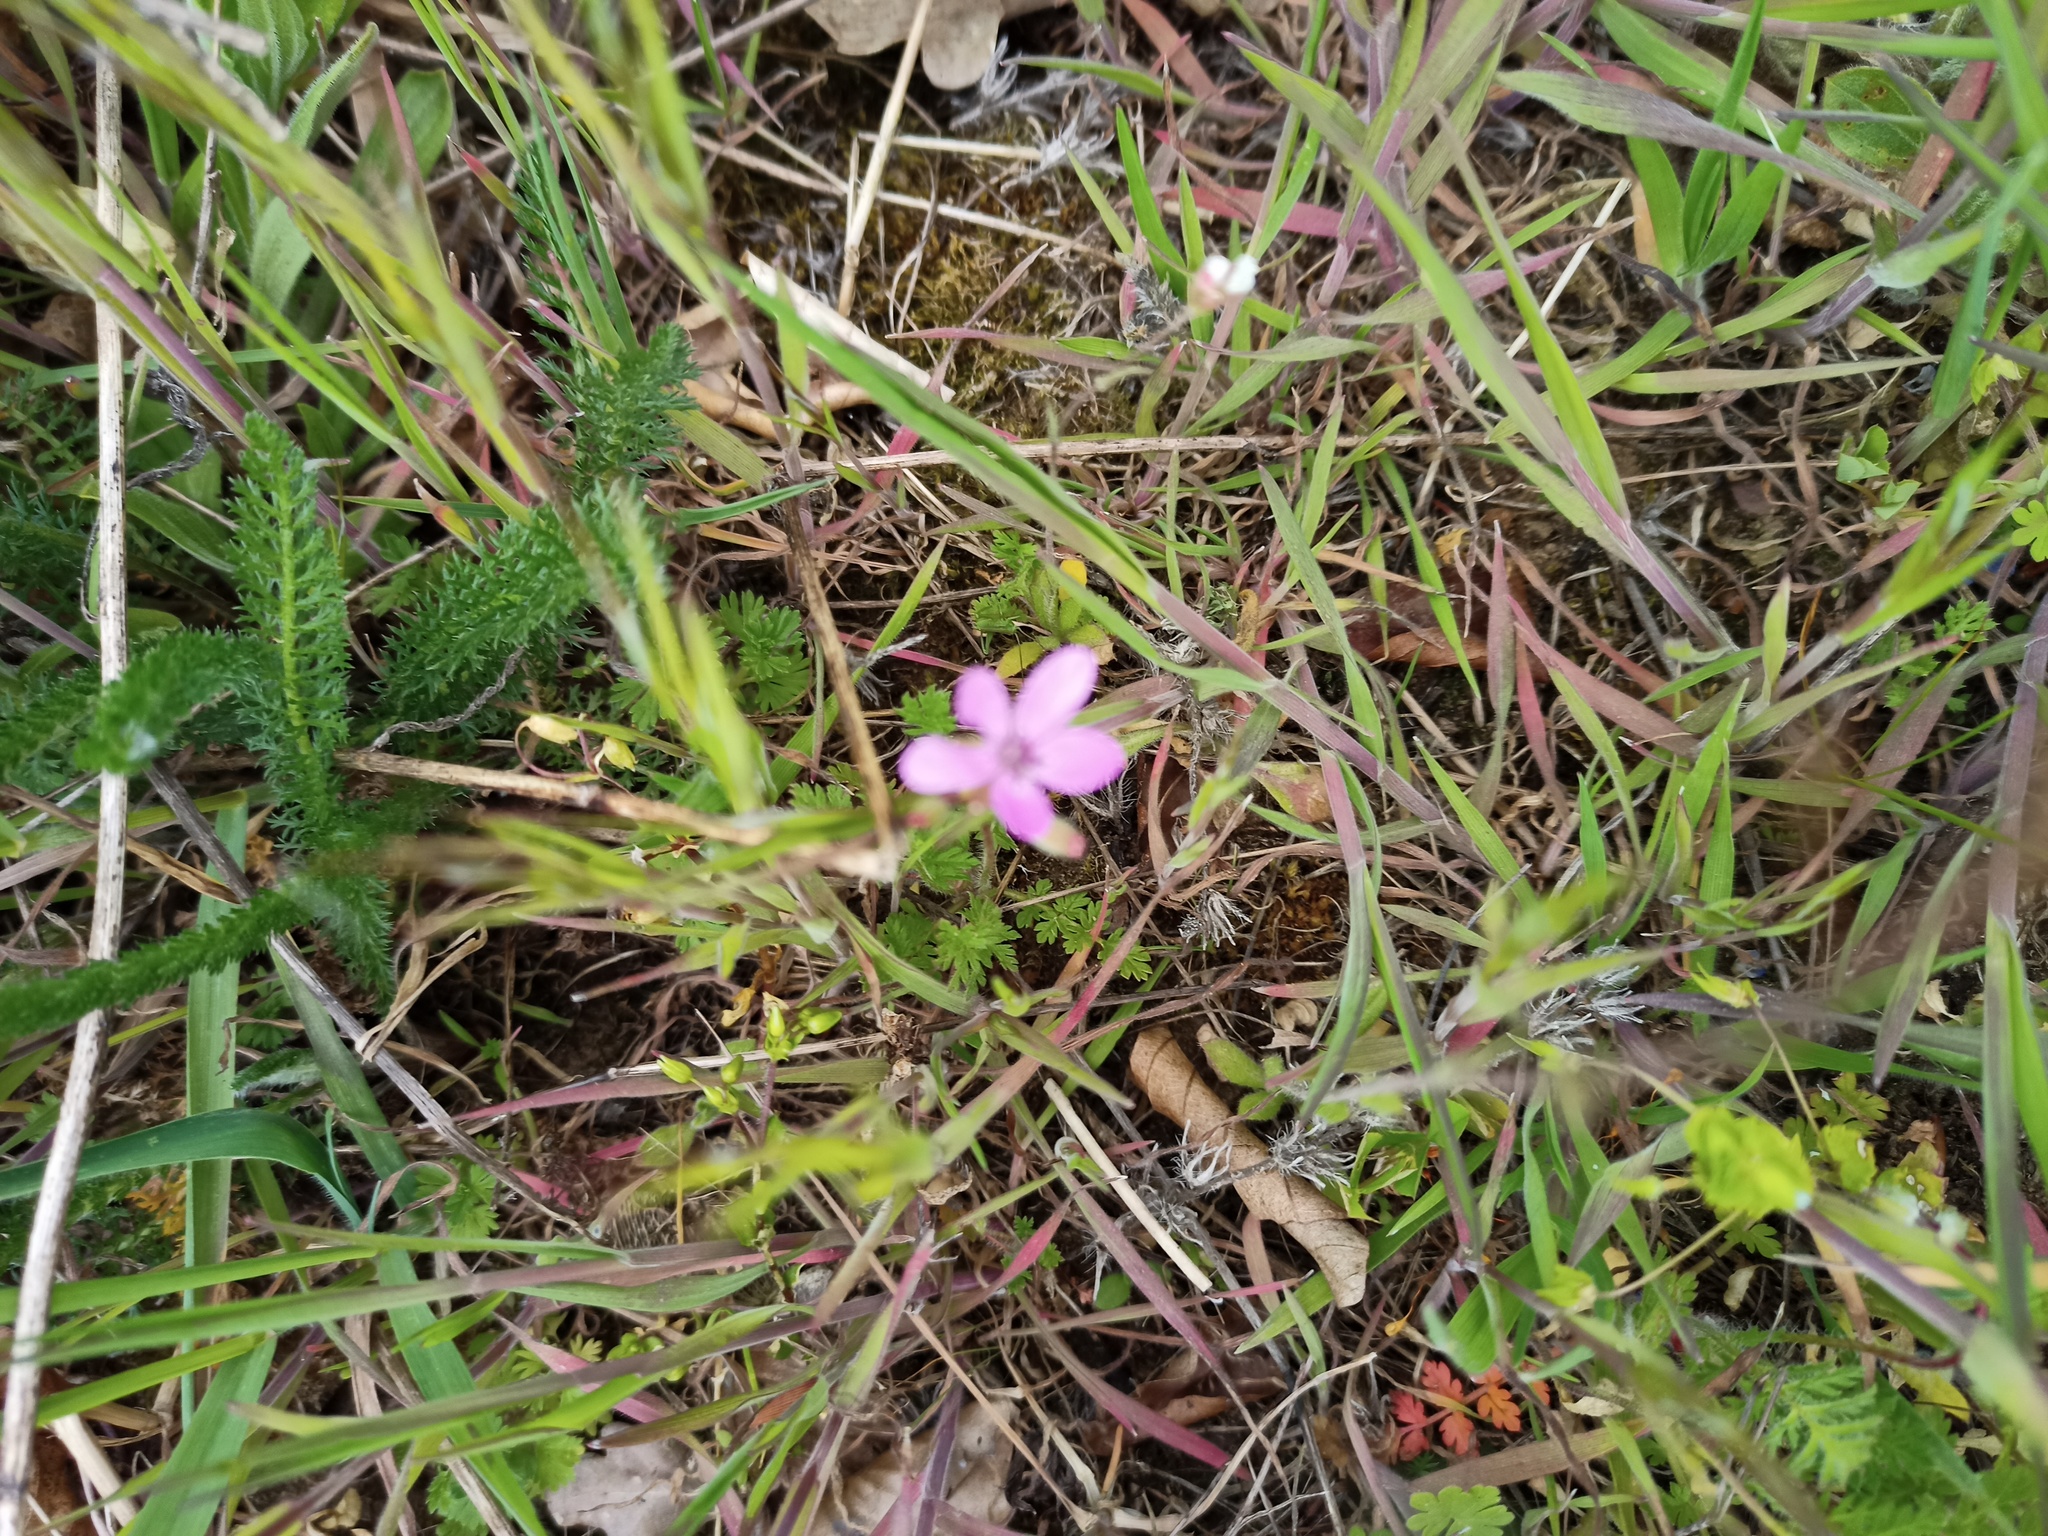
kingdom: Plantae
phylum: Tracheophyta
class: Magnoliopsida
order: Geraniales
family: Geraniaceae
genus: Erodium
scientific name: Erodium cicutarium
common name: Common stork's-bill
